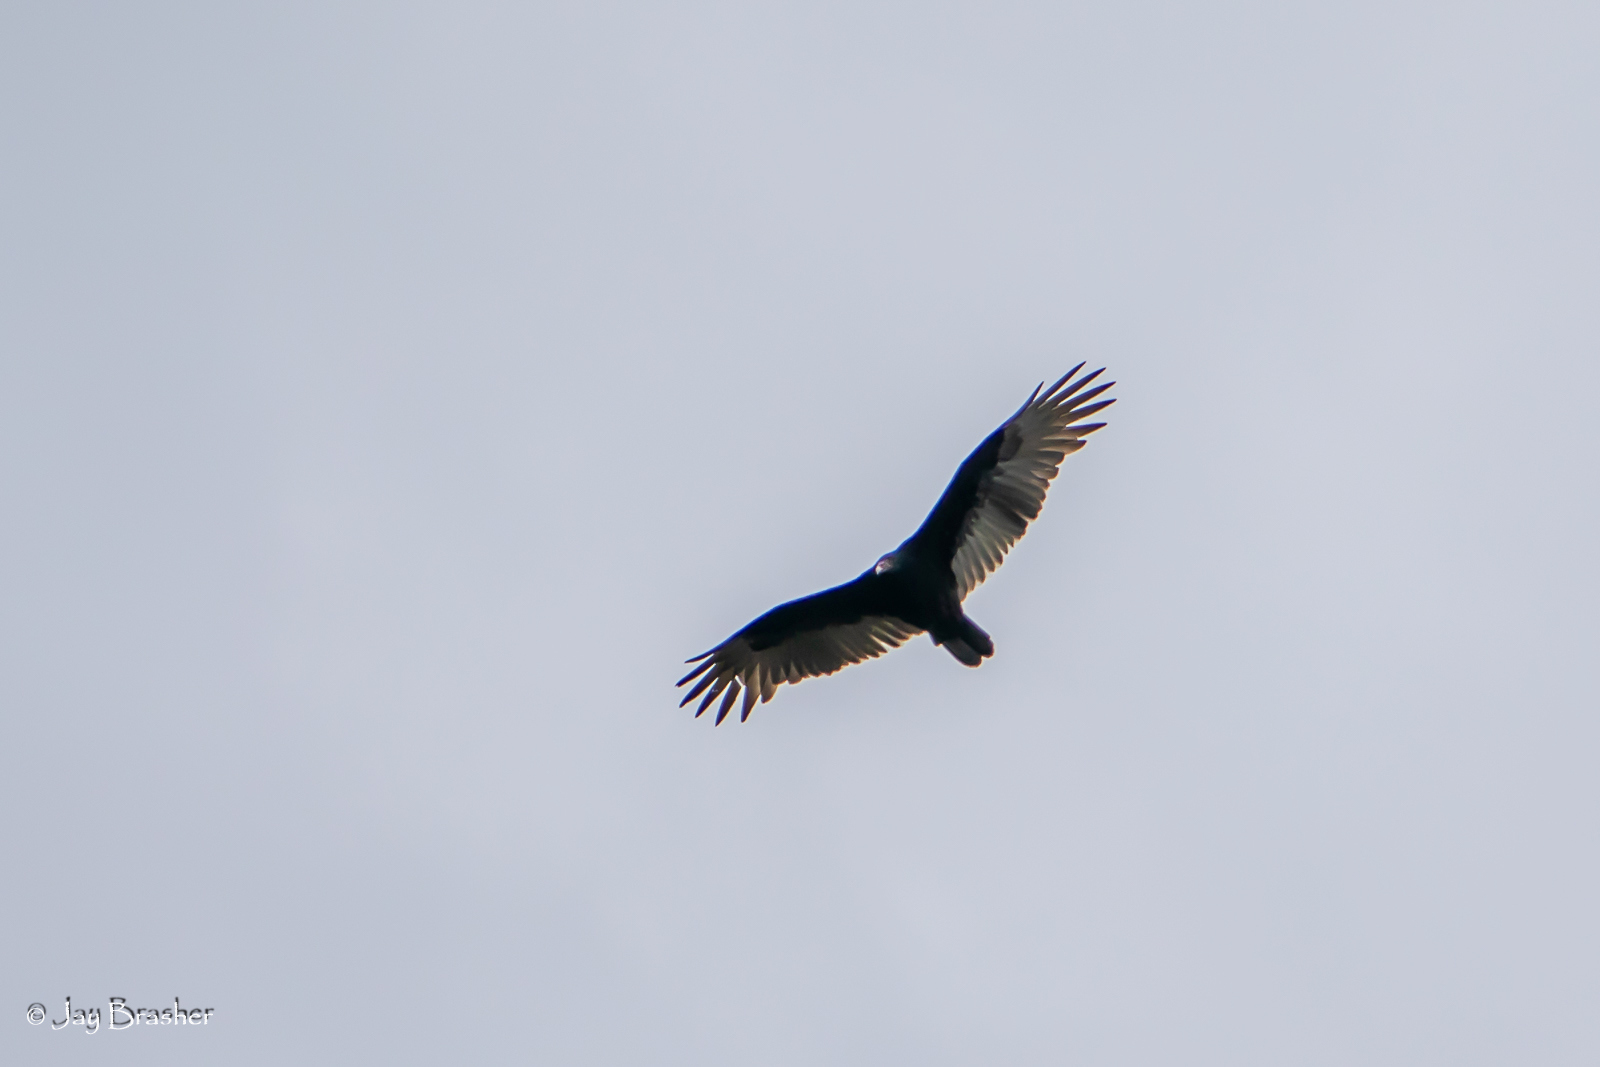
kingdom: Animalia
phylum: Chordata
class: Aves
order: Accipitriformes
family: Cathartidae
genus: Cathartes
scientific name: Cathartes aura
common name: Turkey vulture
